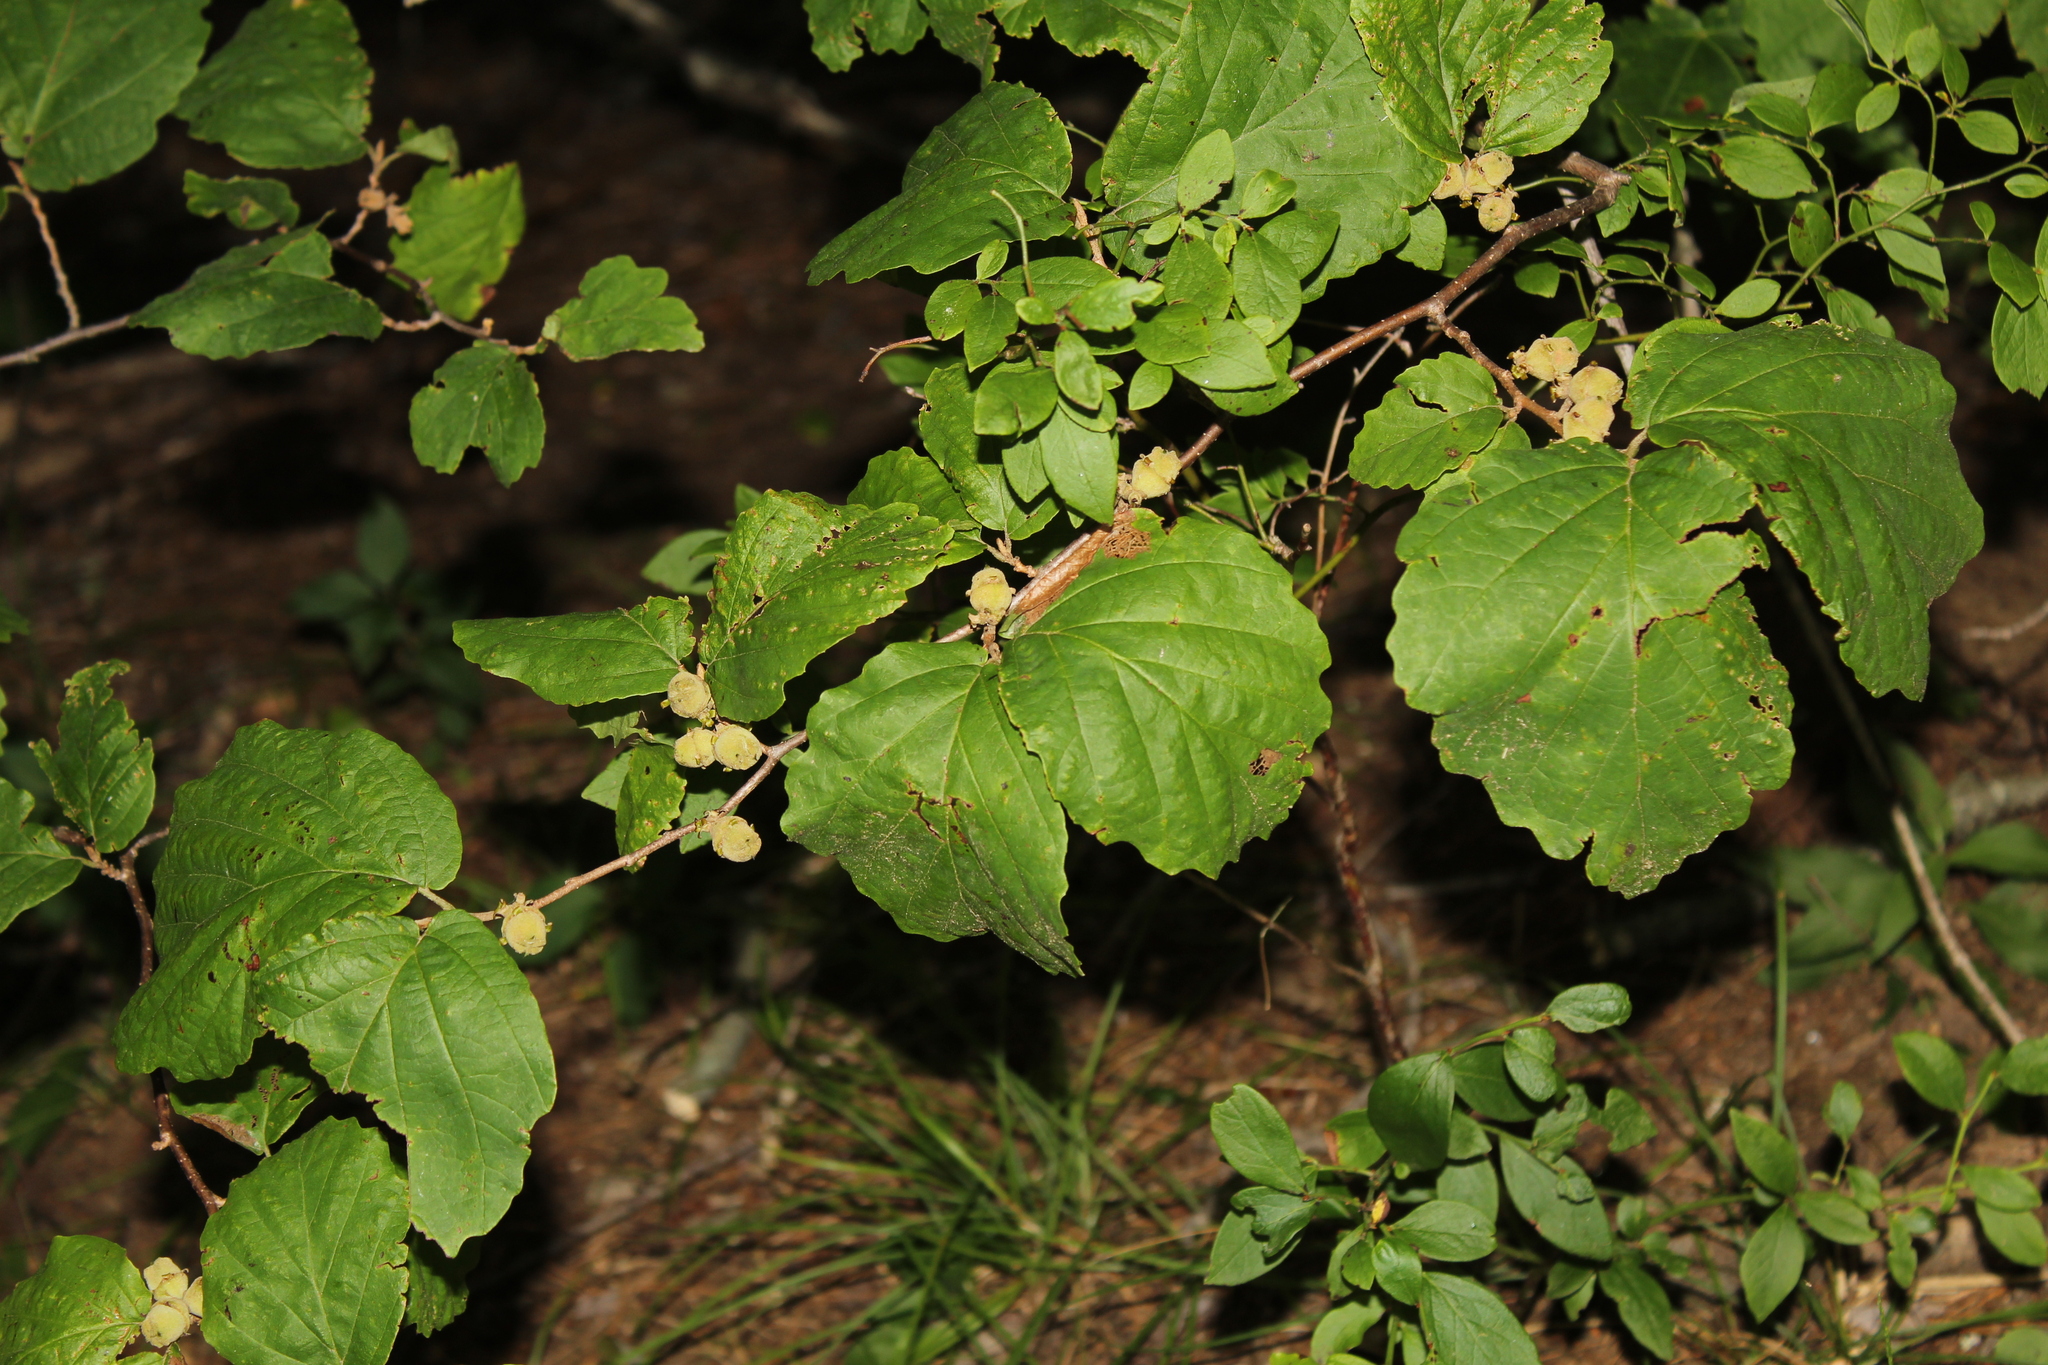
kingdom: Plantae
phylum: Tracheophyta
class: Magnoliopsida
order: Saxifragales
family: Hamamelidaceae
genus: Hamamelis
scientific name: Hamamelis virginiana
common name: Witch-hazel
